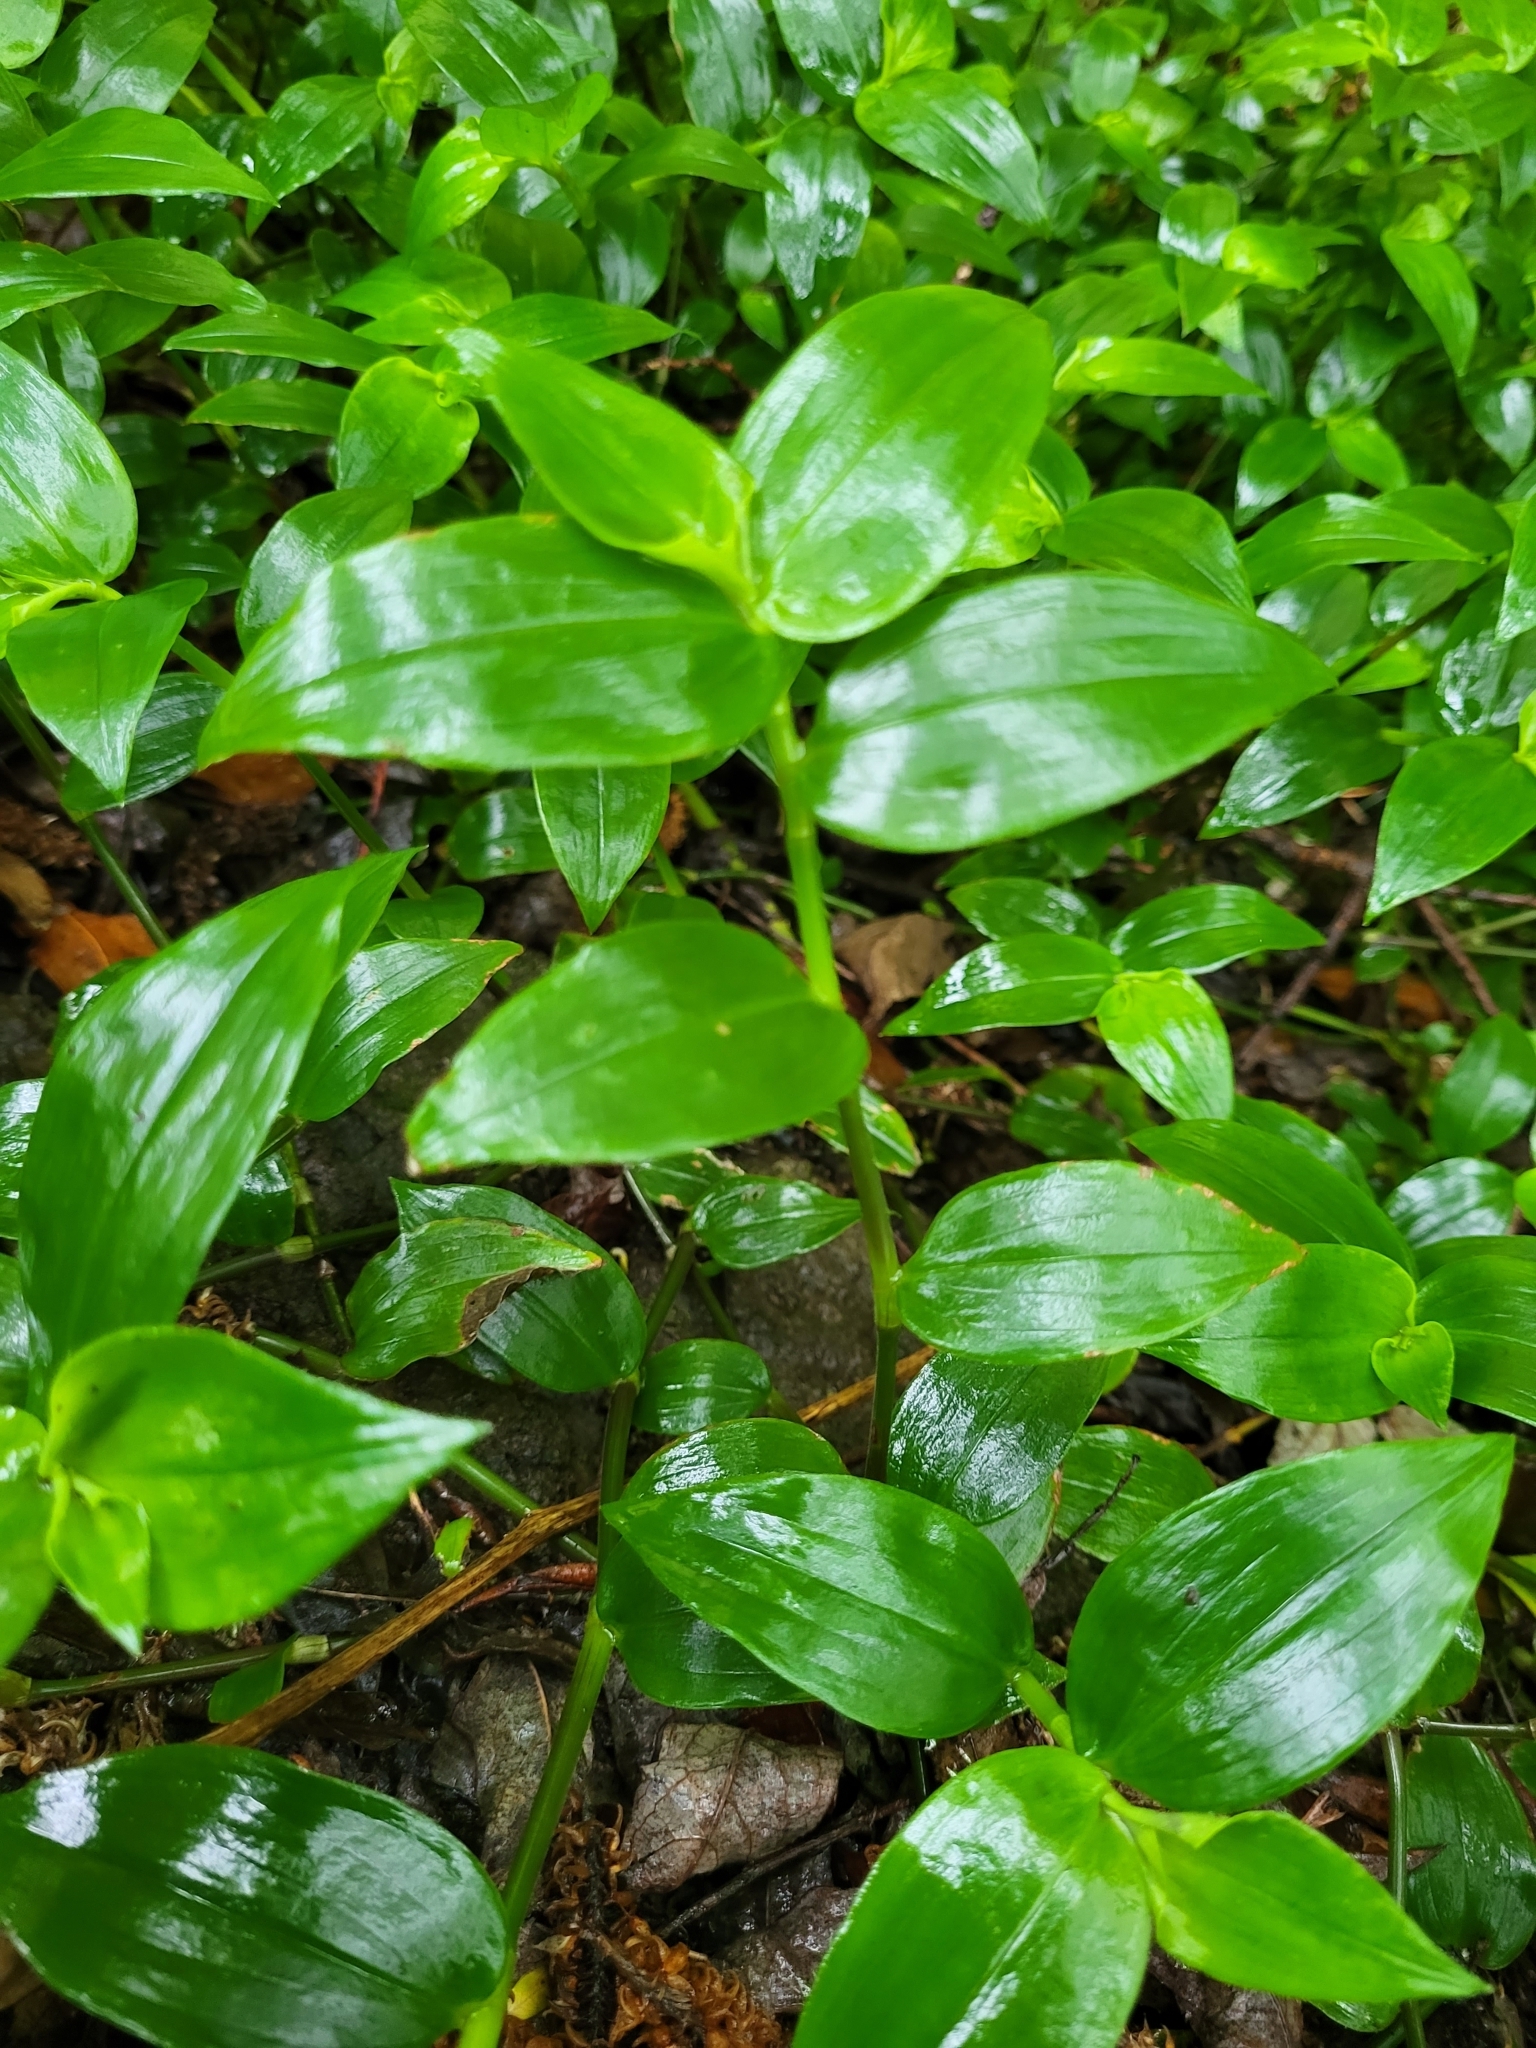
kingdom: Plantae
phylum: Tracheophyta
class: Liliopsida
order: Commelinales
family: Commelinaceae
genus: Tradescantia
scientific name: Tradescantia fluminensis
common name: Wandering-jew
